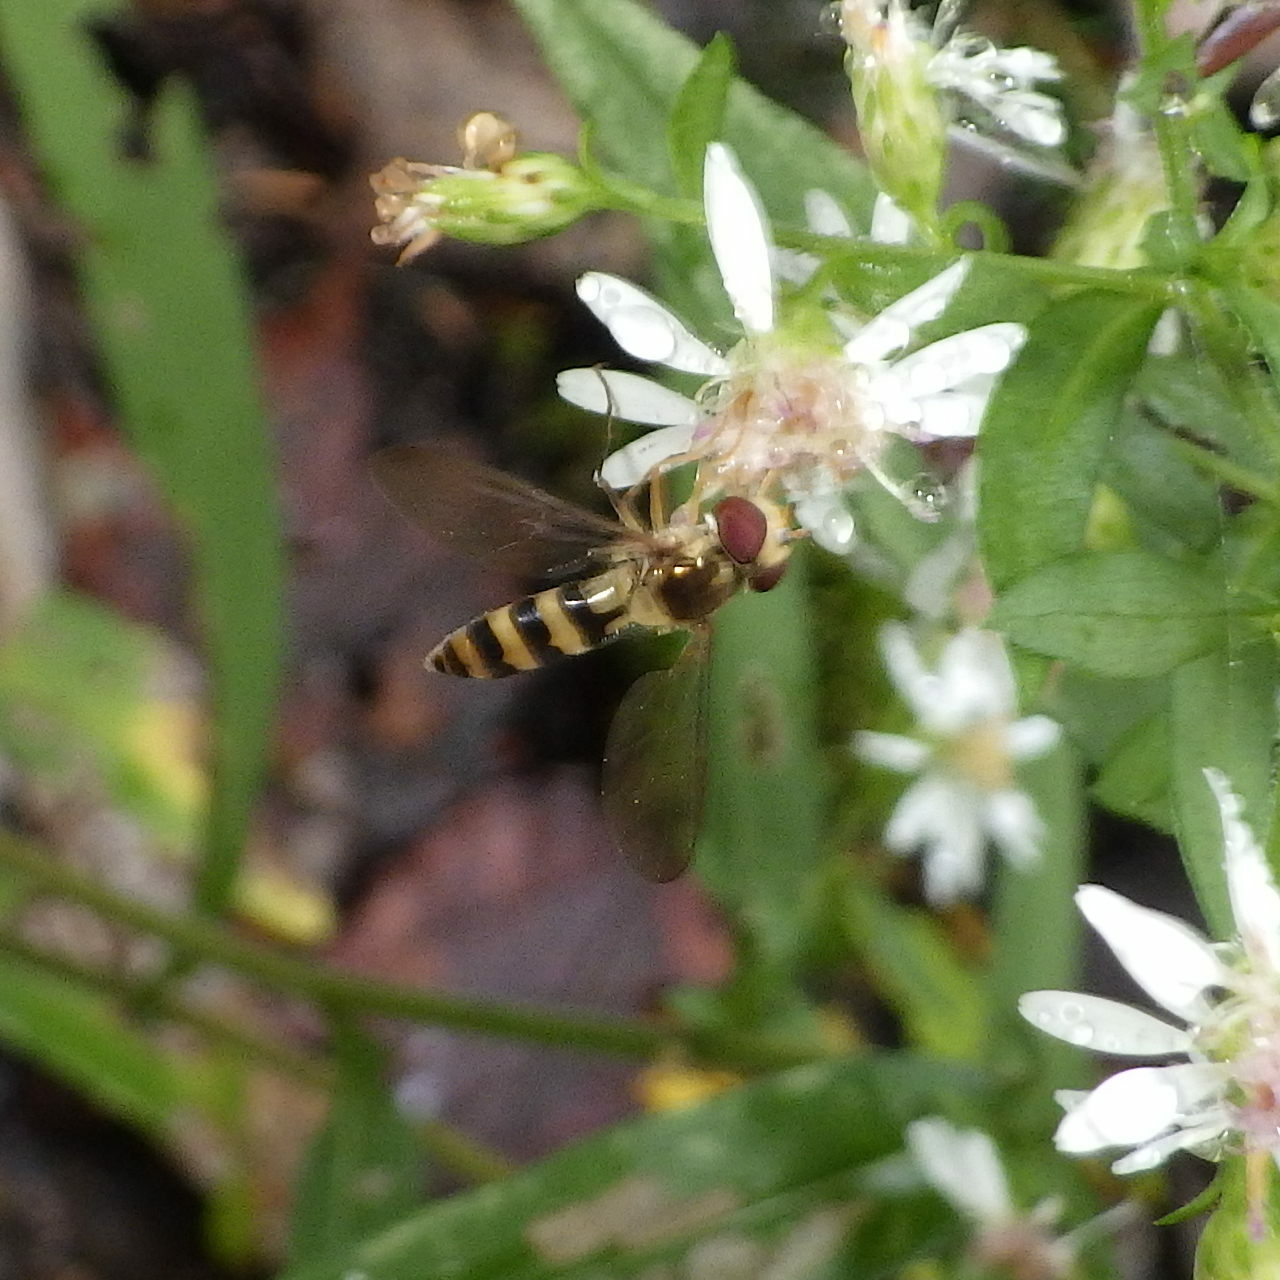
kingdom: Animalia
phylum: Arthropoda
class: Insecta
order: Diptera
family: Syrphidae
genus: Meliscaeva
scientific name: Meliscaeva cinctella
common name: American thintail fly
